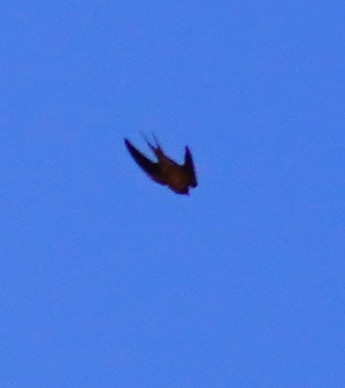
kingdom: Animalia
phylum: Chordata
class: Aves
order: Passeriformes
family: Hirundinidae
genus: Hirundo
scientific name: Hirundo rustica
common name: Barn swallow
